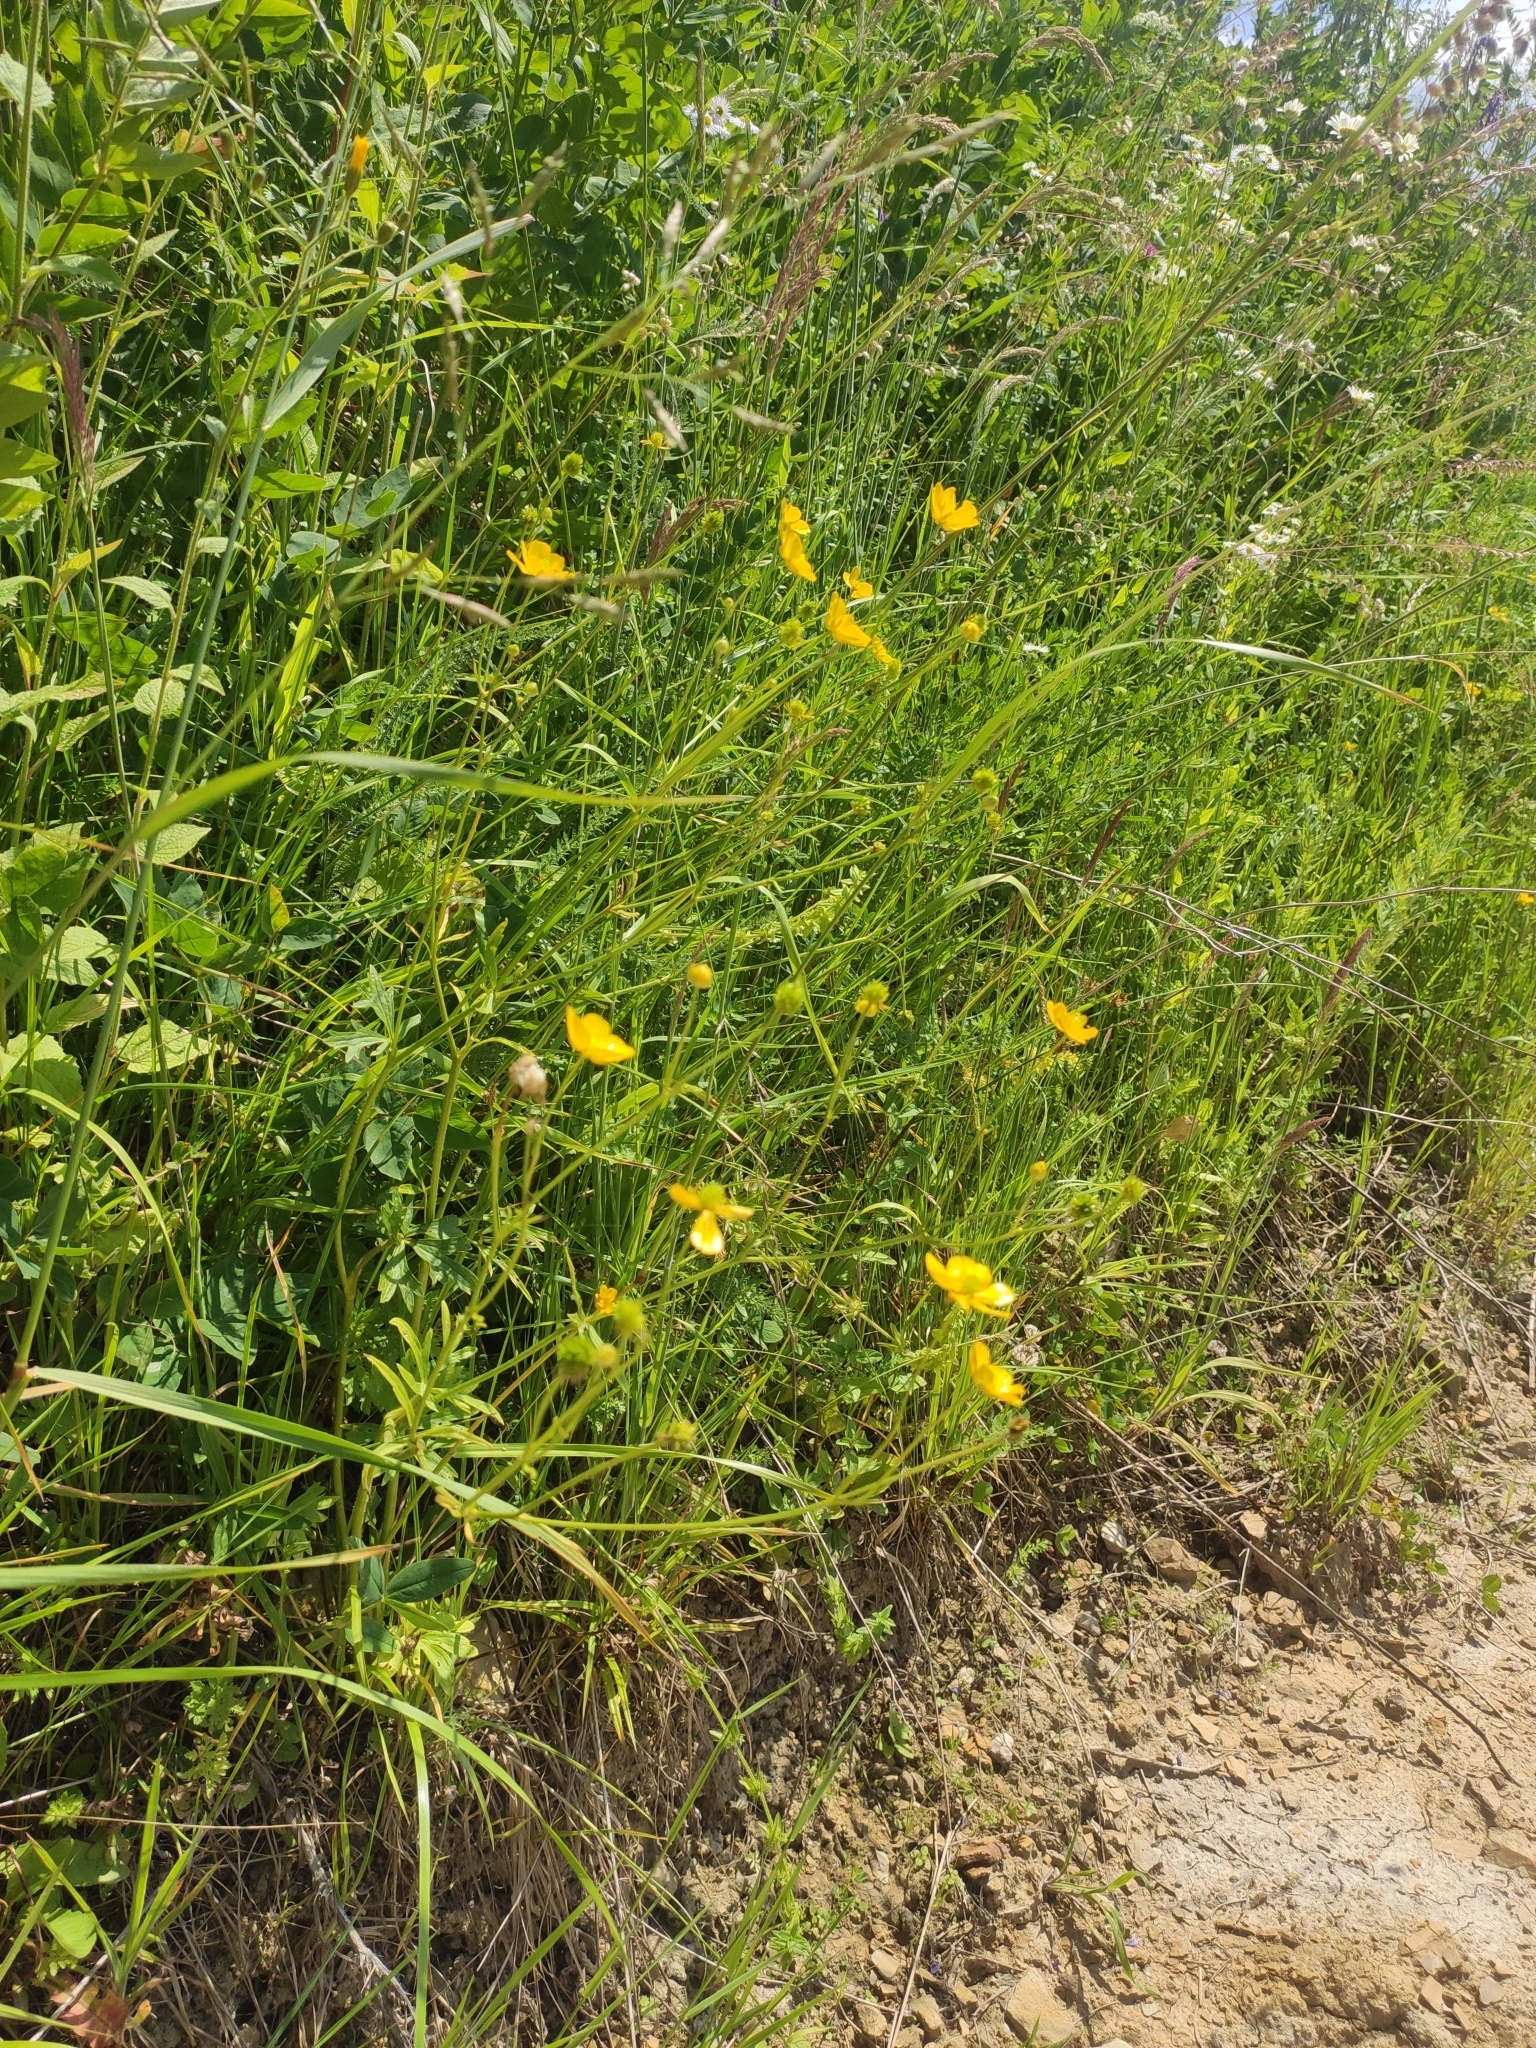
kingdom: Plantae
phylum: Tracheophyta
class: Magnoliopsida
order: Ranunculales
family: Ranunculaceae
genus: Ranunculus
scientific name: Ranunculus polyanthemos
